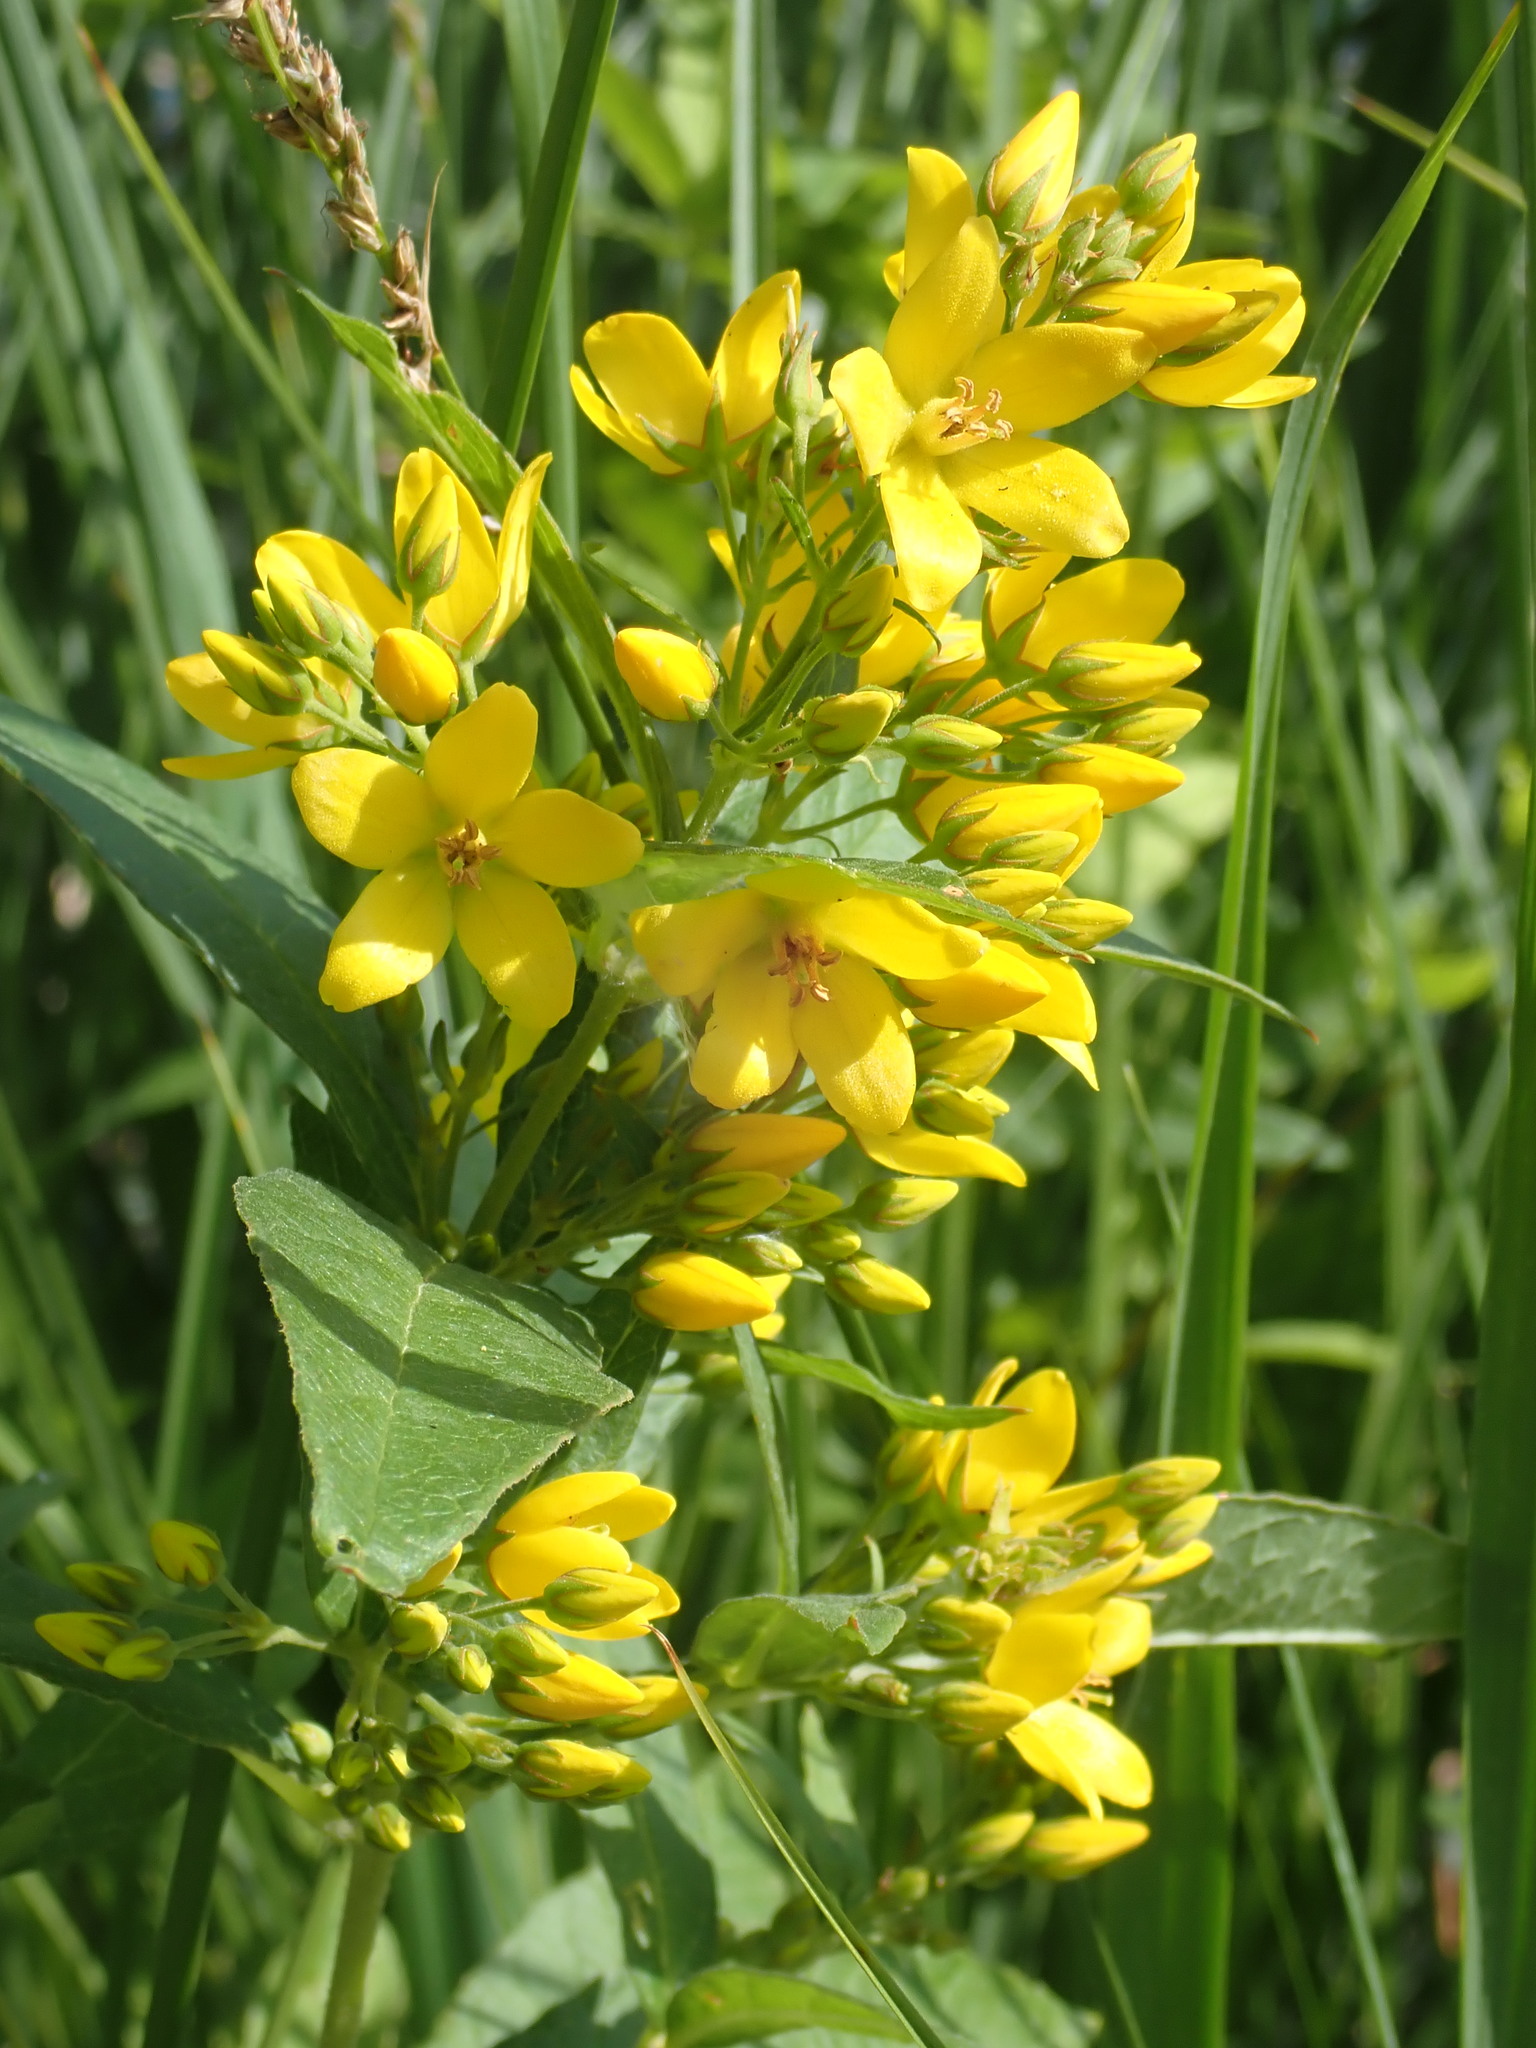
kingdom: Plantae
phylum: Tracheophyta
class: Magnoliopsida
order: Ericales
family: Primulaceae
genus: Lysimachia
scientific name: Lysimachia vulgaris
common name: Yellow loosestrife
